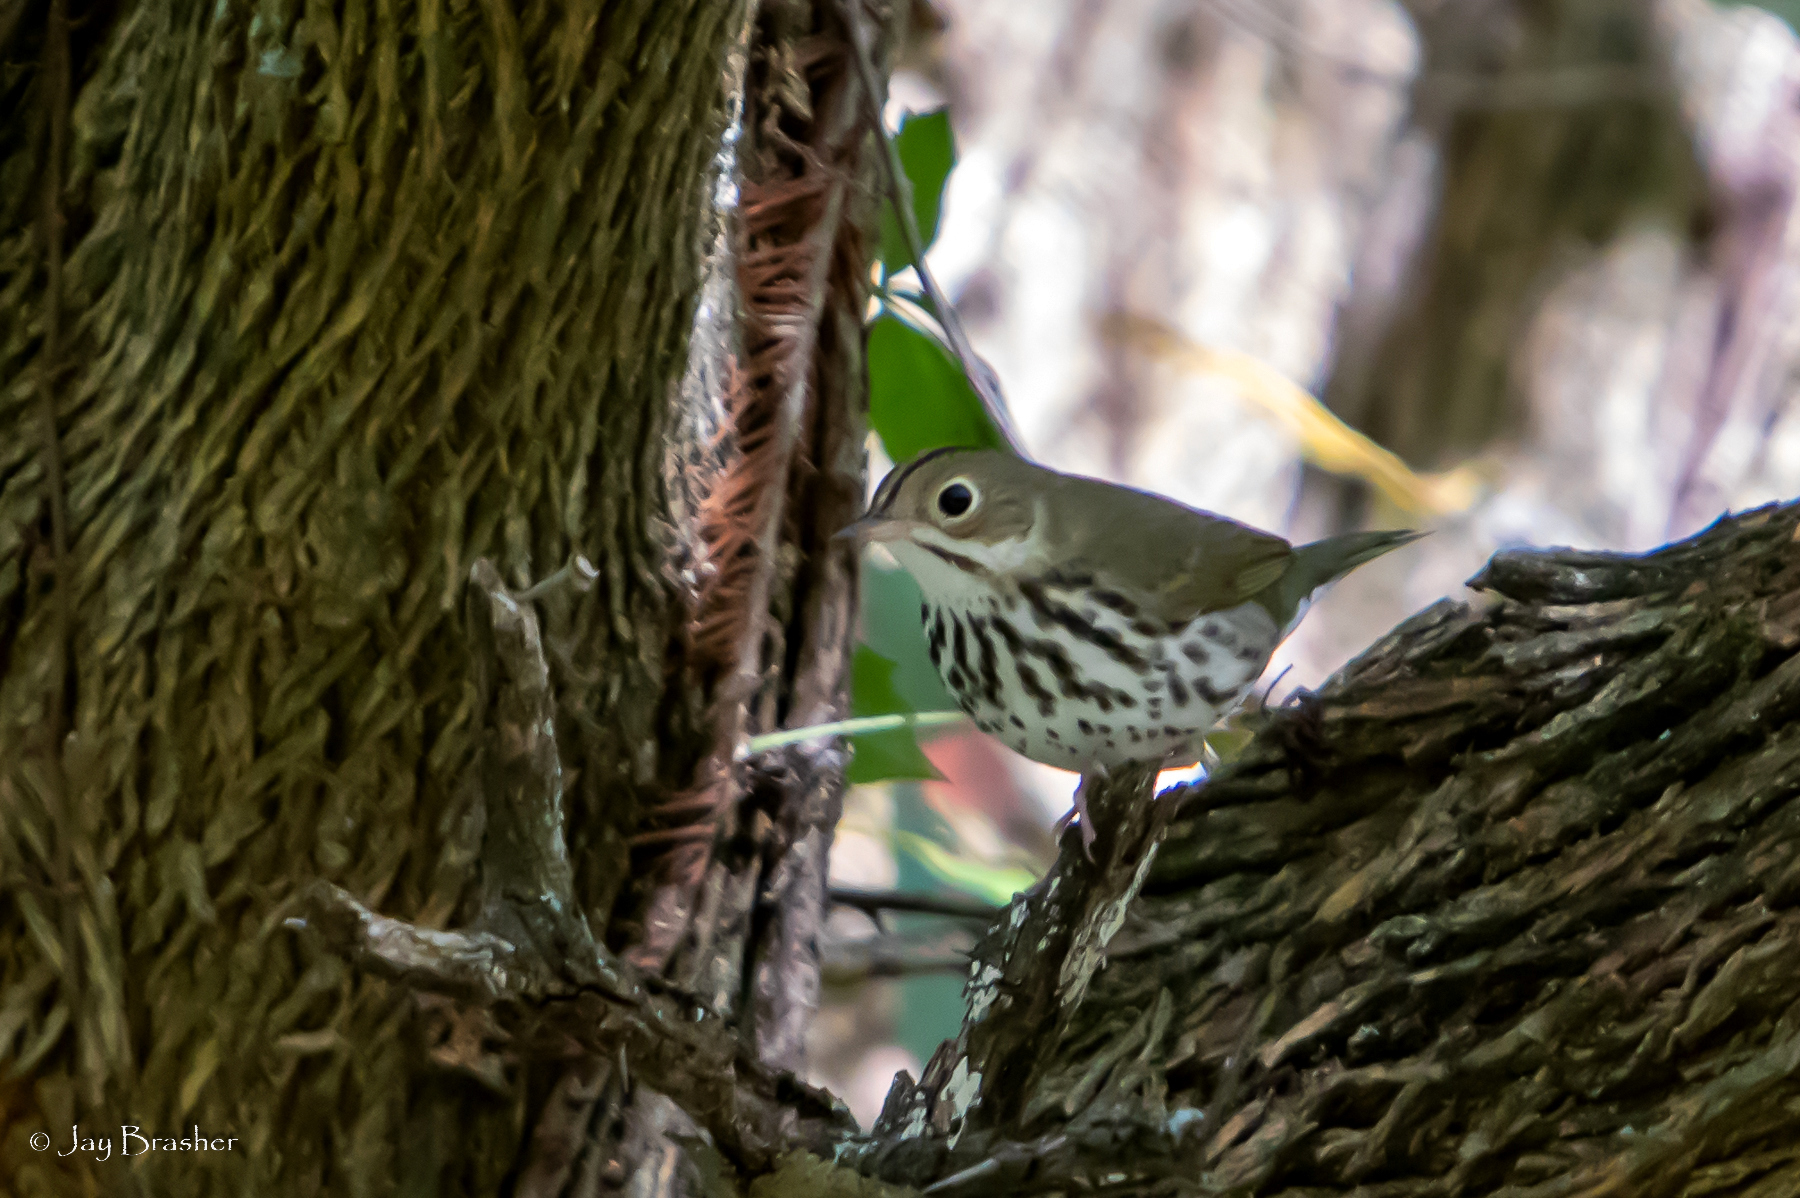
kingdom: Animalia
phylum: Chordata
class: Aves
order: Passeriformes
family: Parulidae
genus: Seiurus
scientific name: Seiurus aurocapilla
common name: Ovenbird
